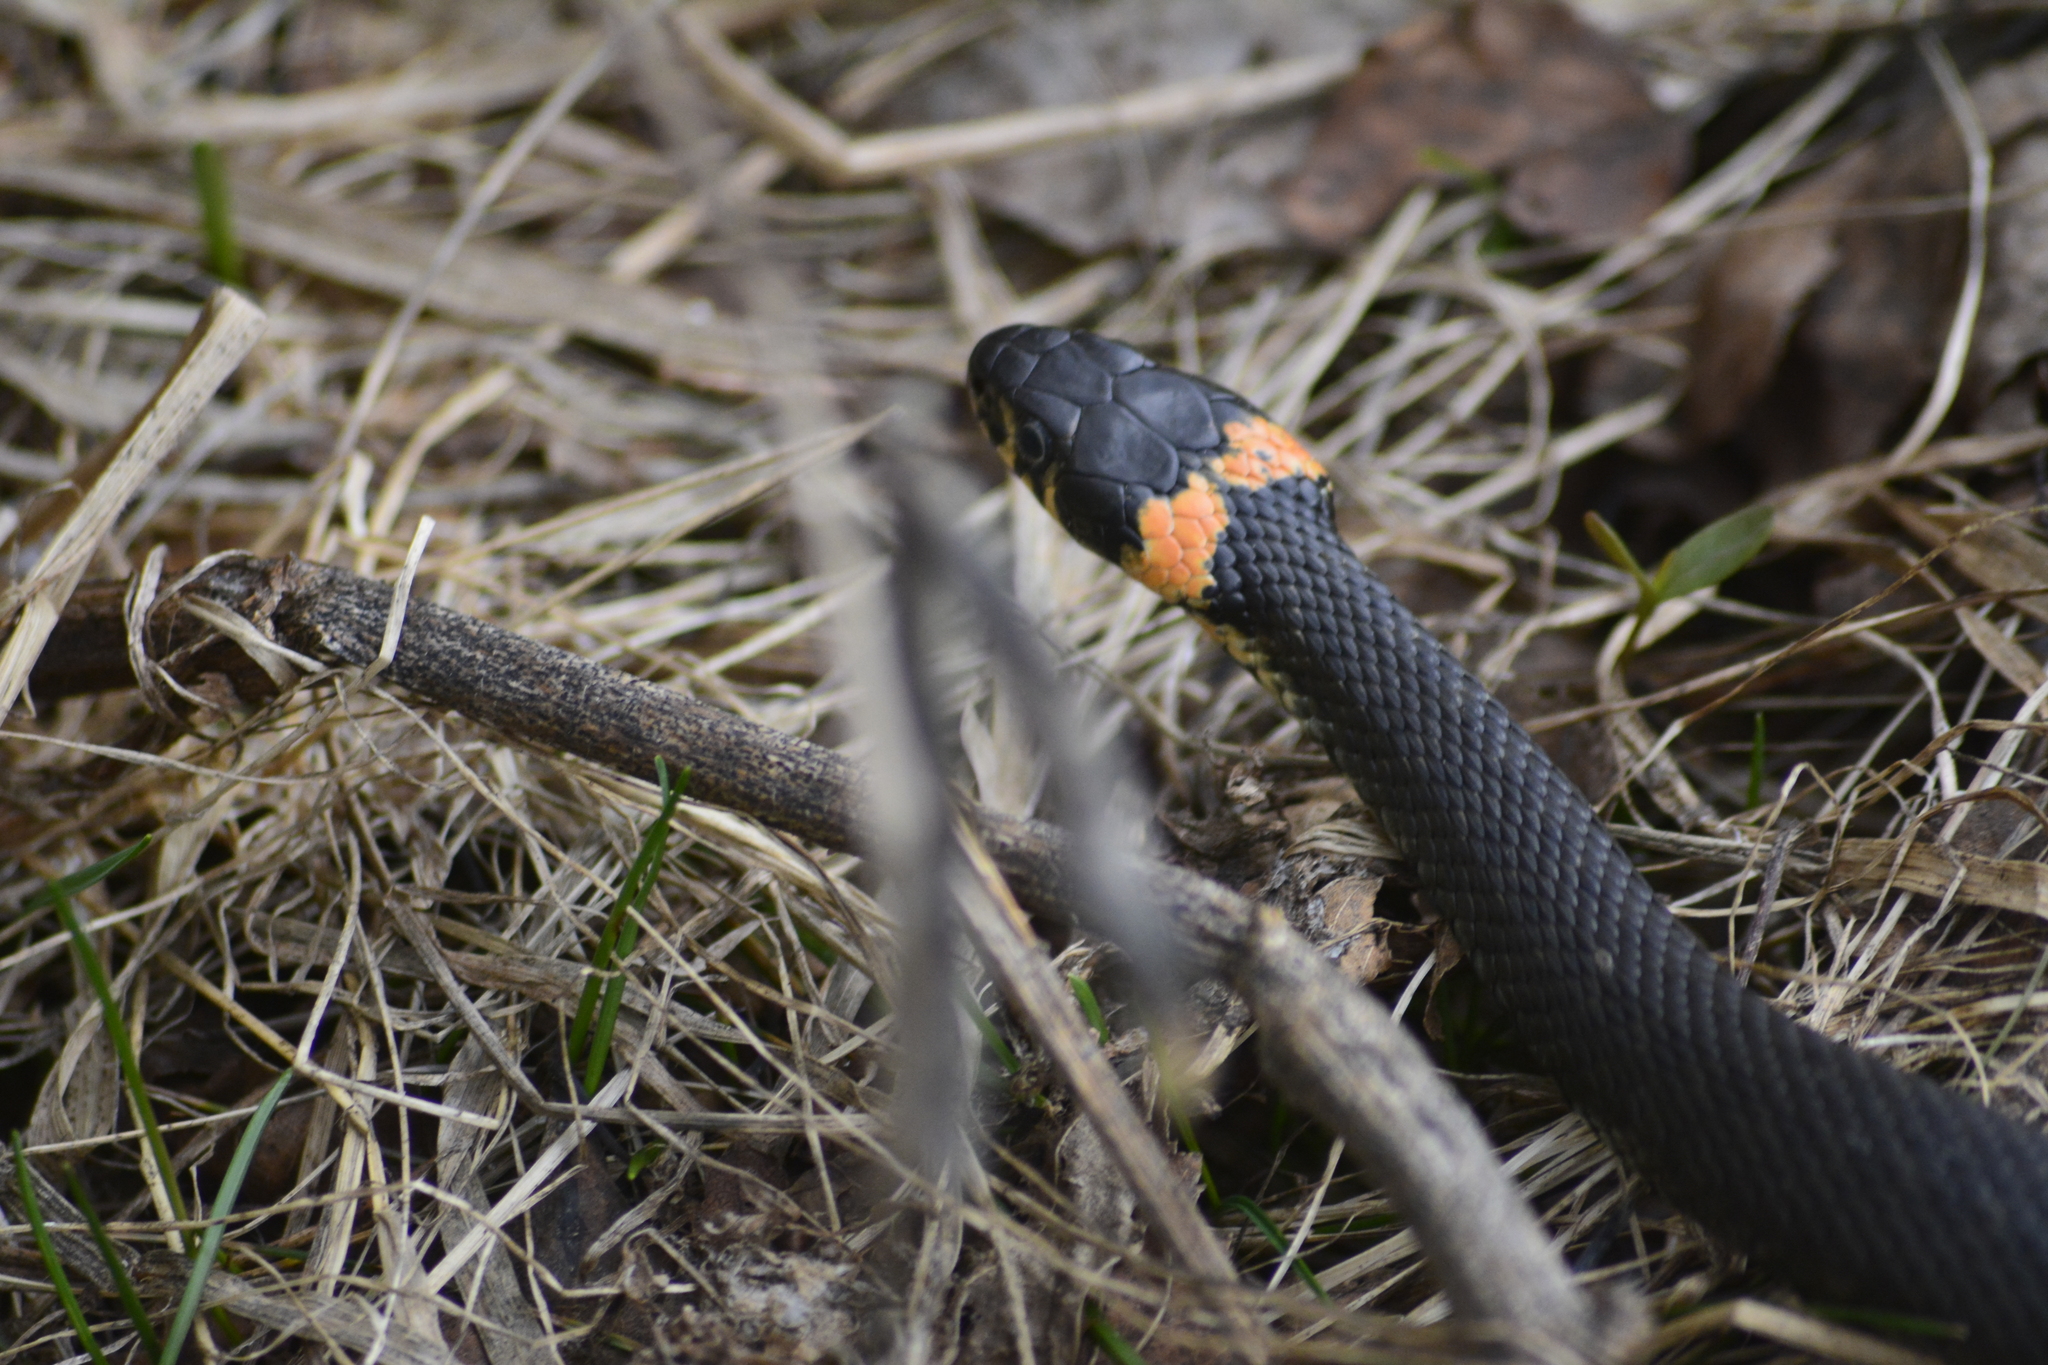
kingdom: Animalia
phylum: Chordata
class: Squamata
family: Colubridae
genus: Natrix
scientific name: Natrix natrix
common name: Grass snake
